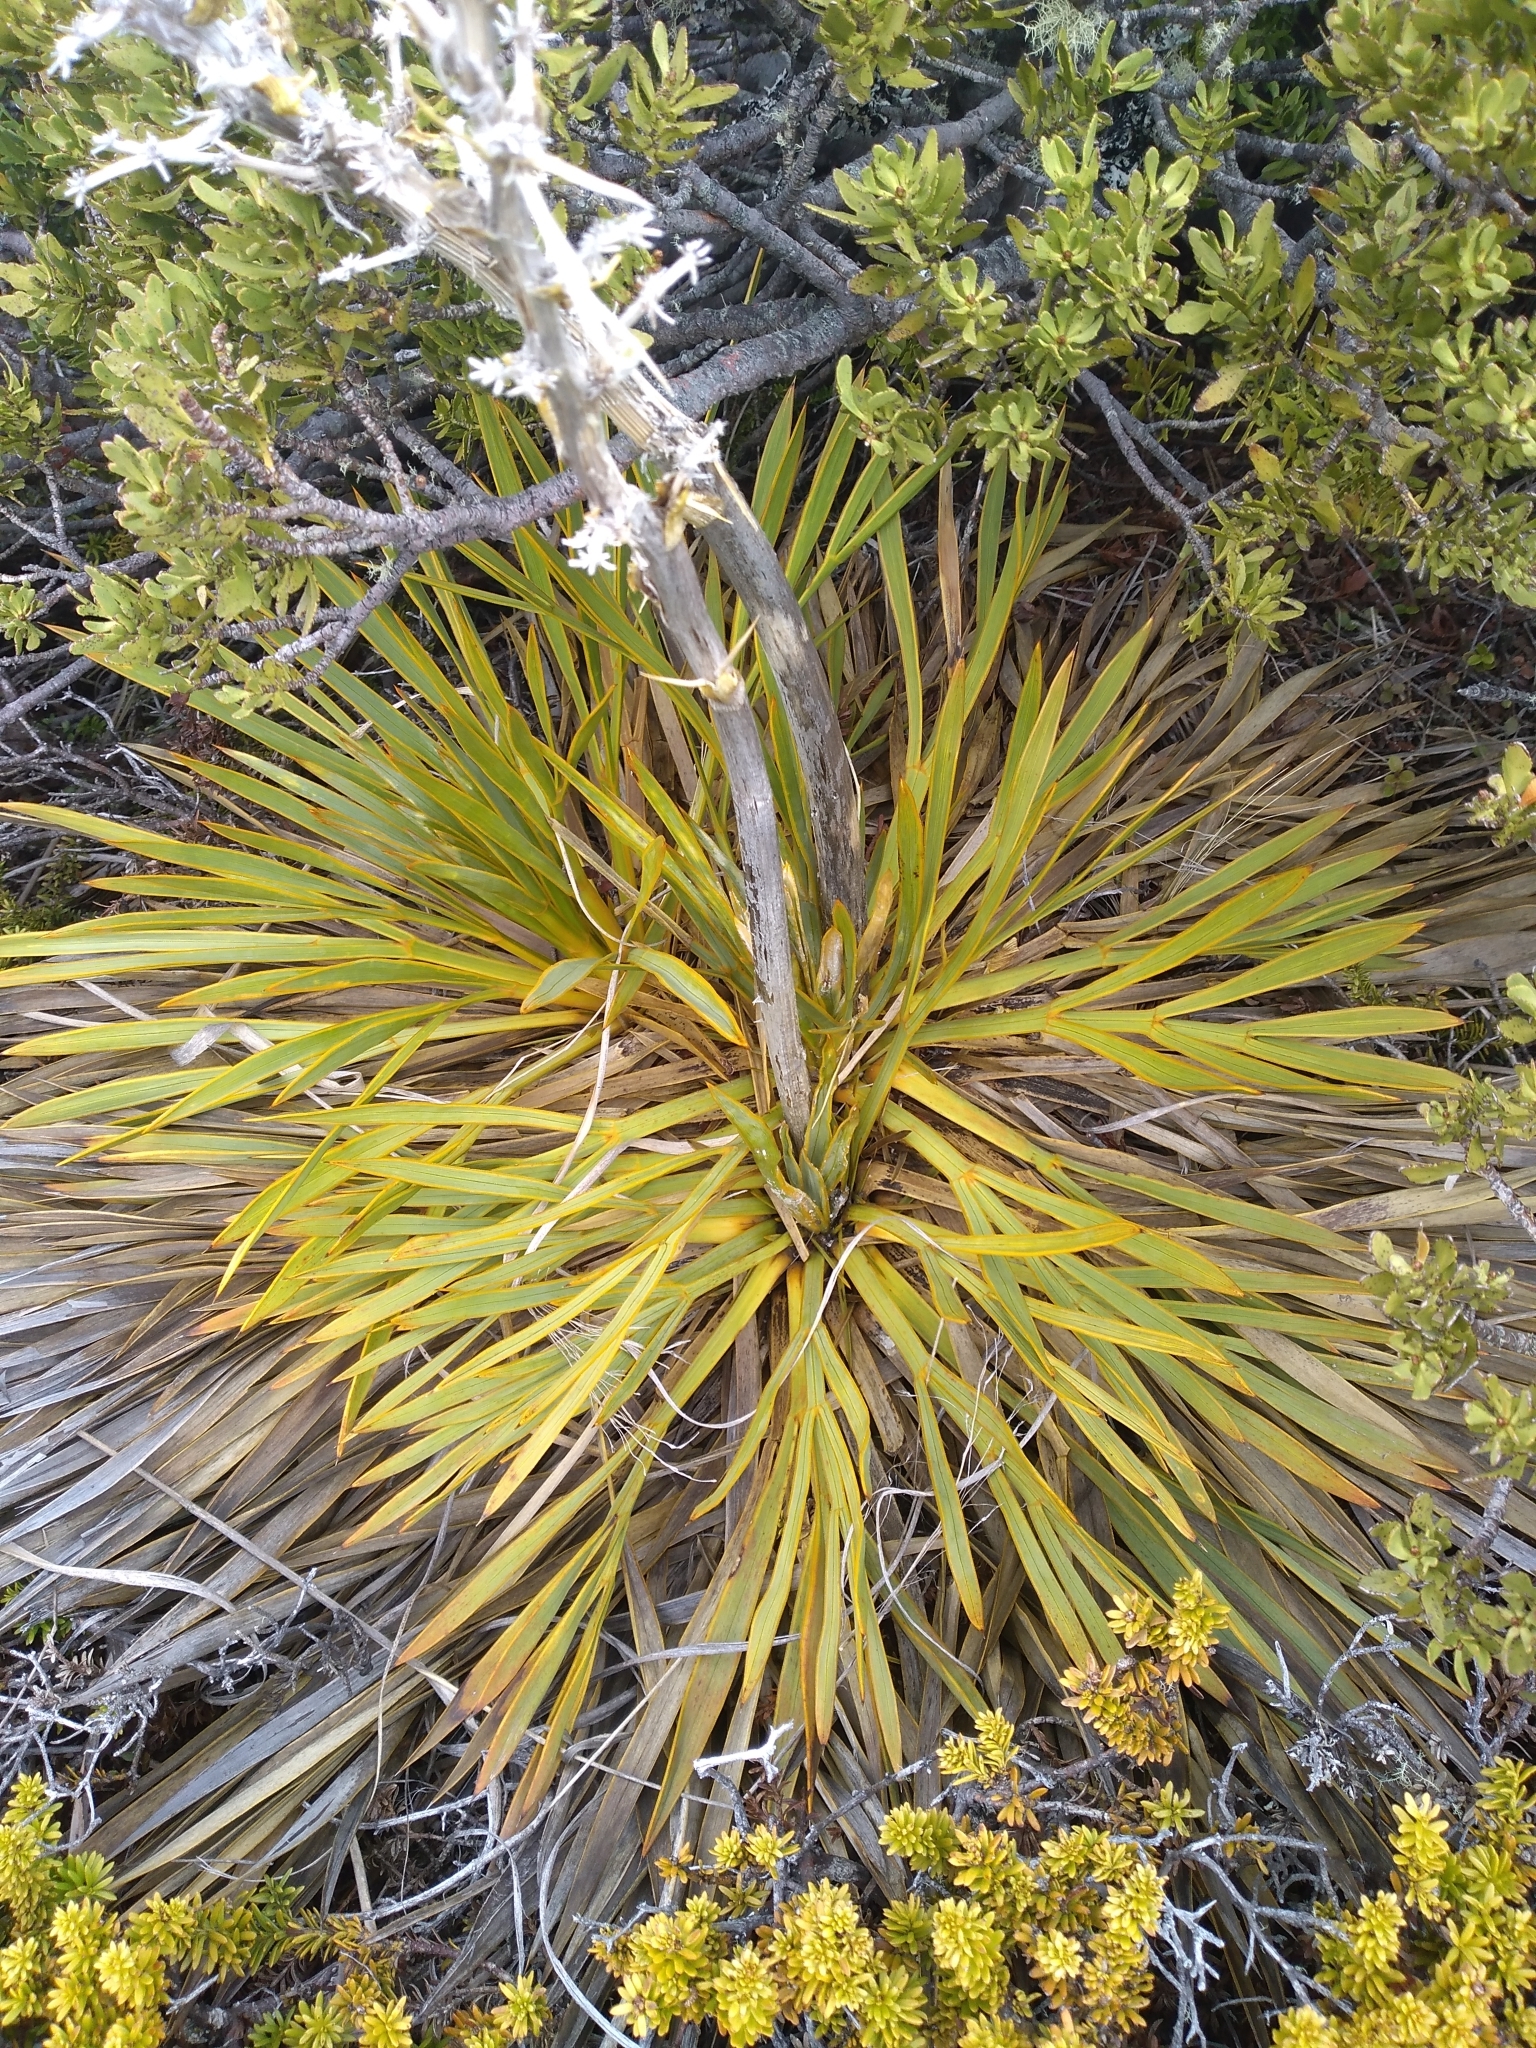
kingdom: Plantae
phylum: Tracheophyta
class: Magnoliopsida
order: Apiales
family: Apiaceae
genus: Aciphylla
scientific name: Aciphylla aurea
